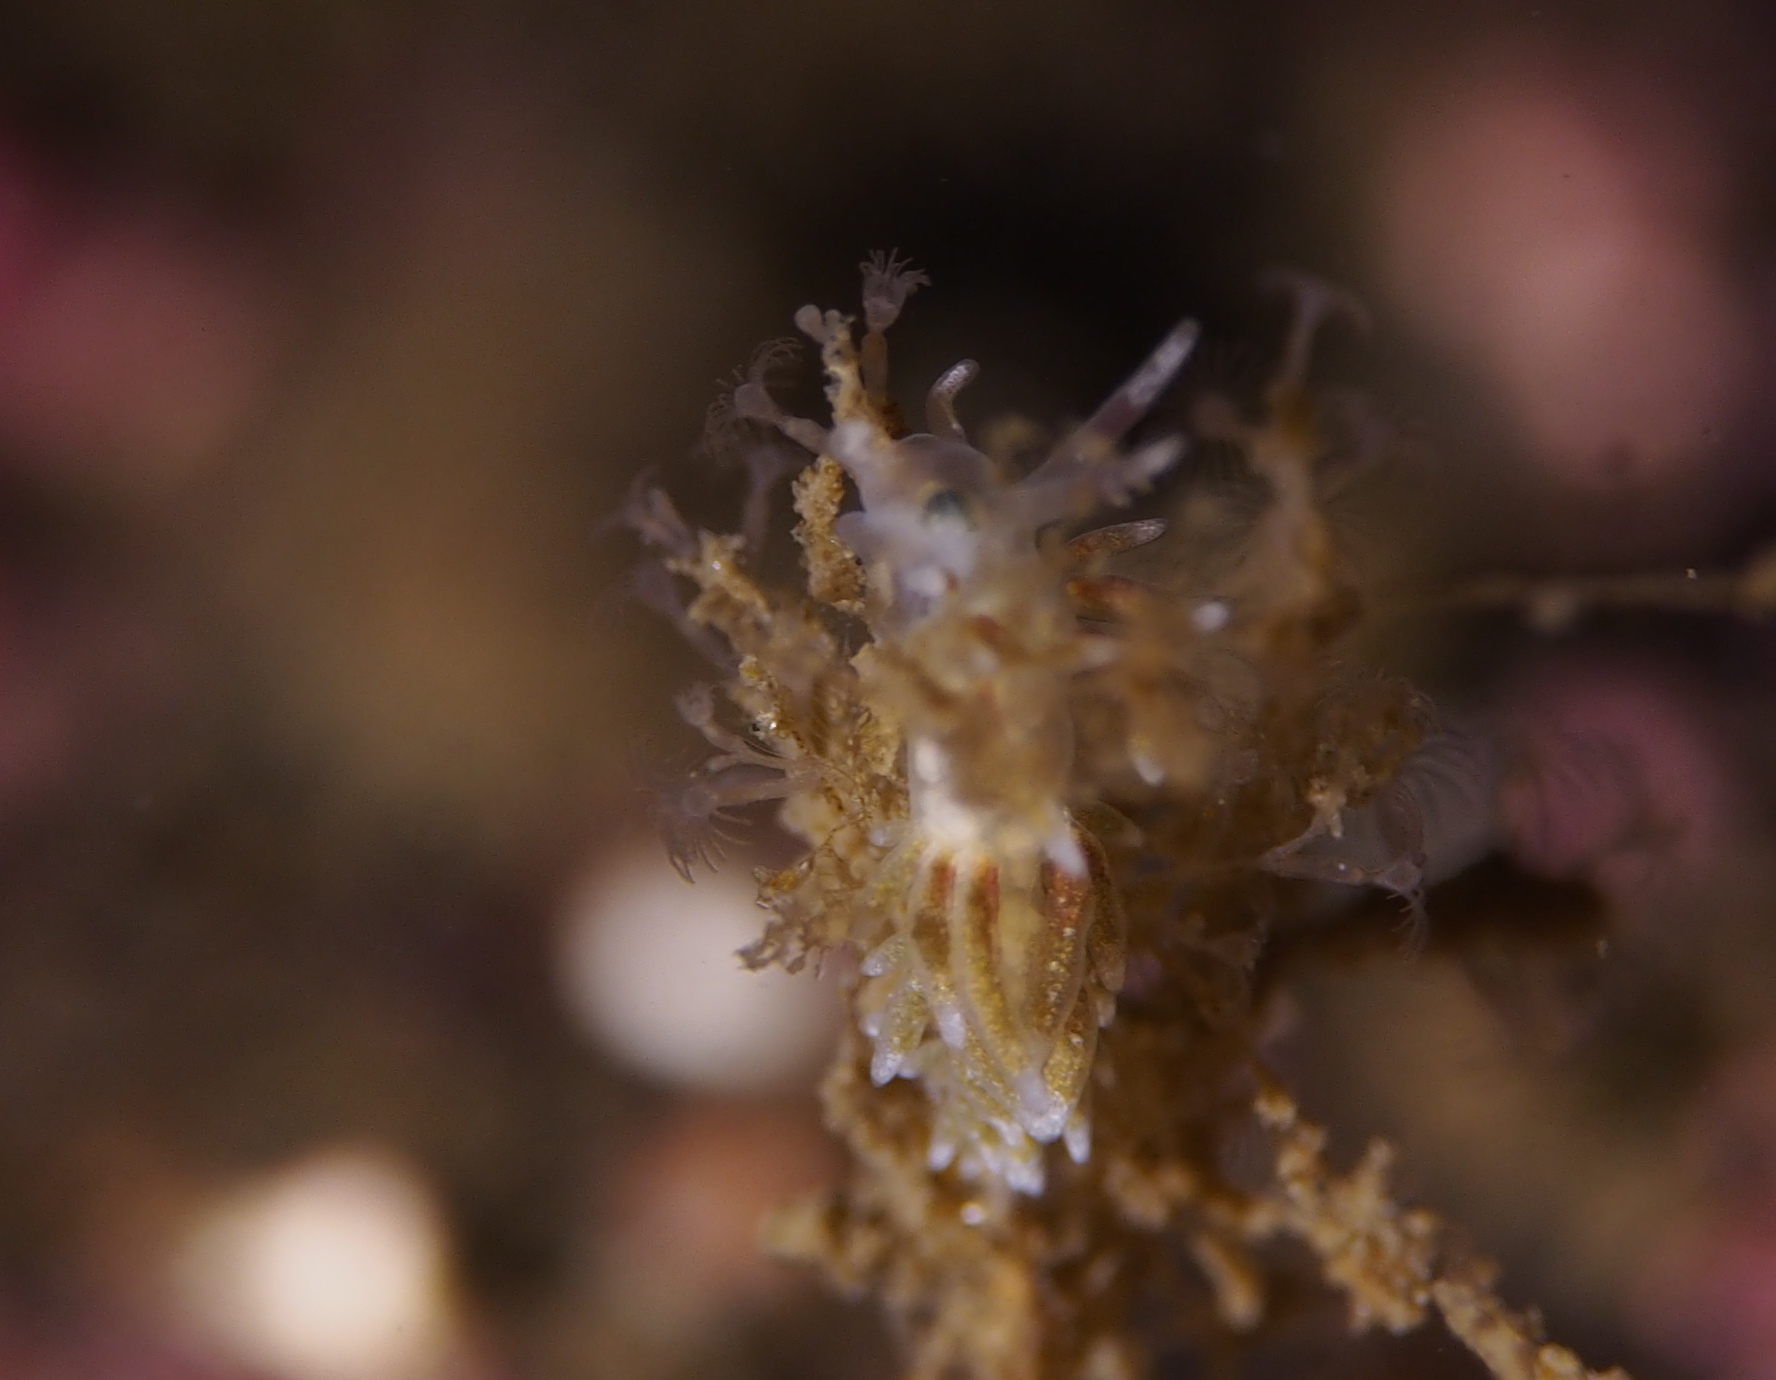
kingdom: Animalia
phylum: Mollusca
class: Gastropoda
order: Nudibranchia
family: Trinchesiidae
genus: Rubramoena
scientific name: Rubramoena rubescens
